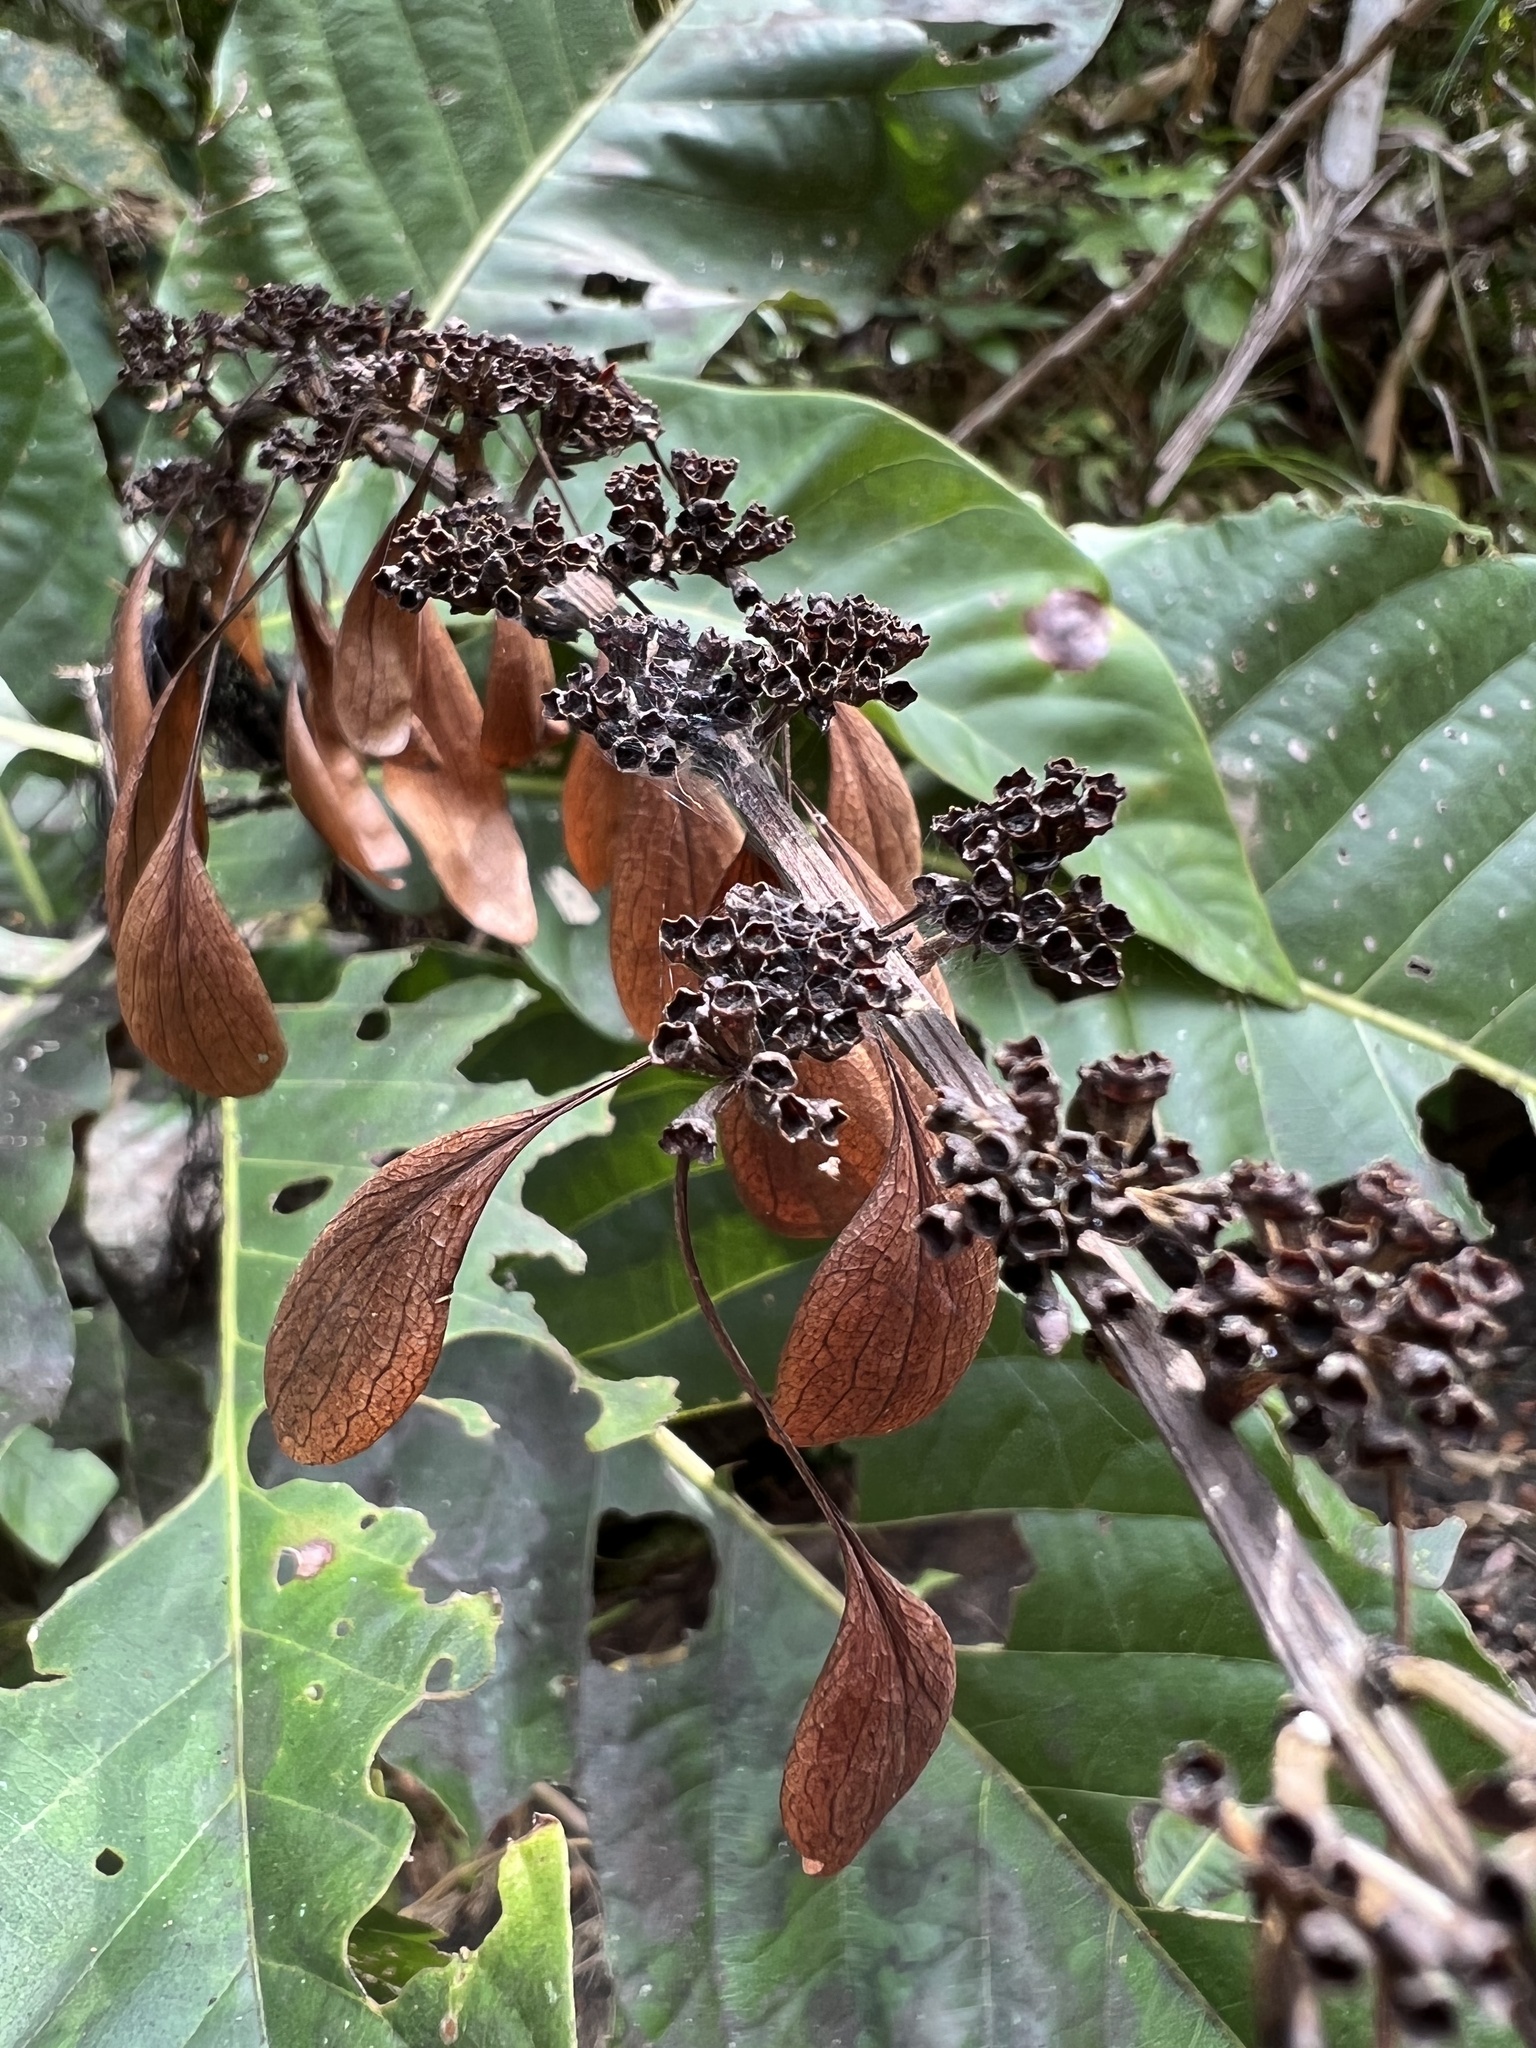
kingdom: Plantae
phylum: Tracheophyta
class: Magnoliopsida
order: Gentianales
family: Rubiaceae
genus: Warszewiczia
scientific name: Warszewiczia coccinea
